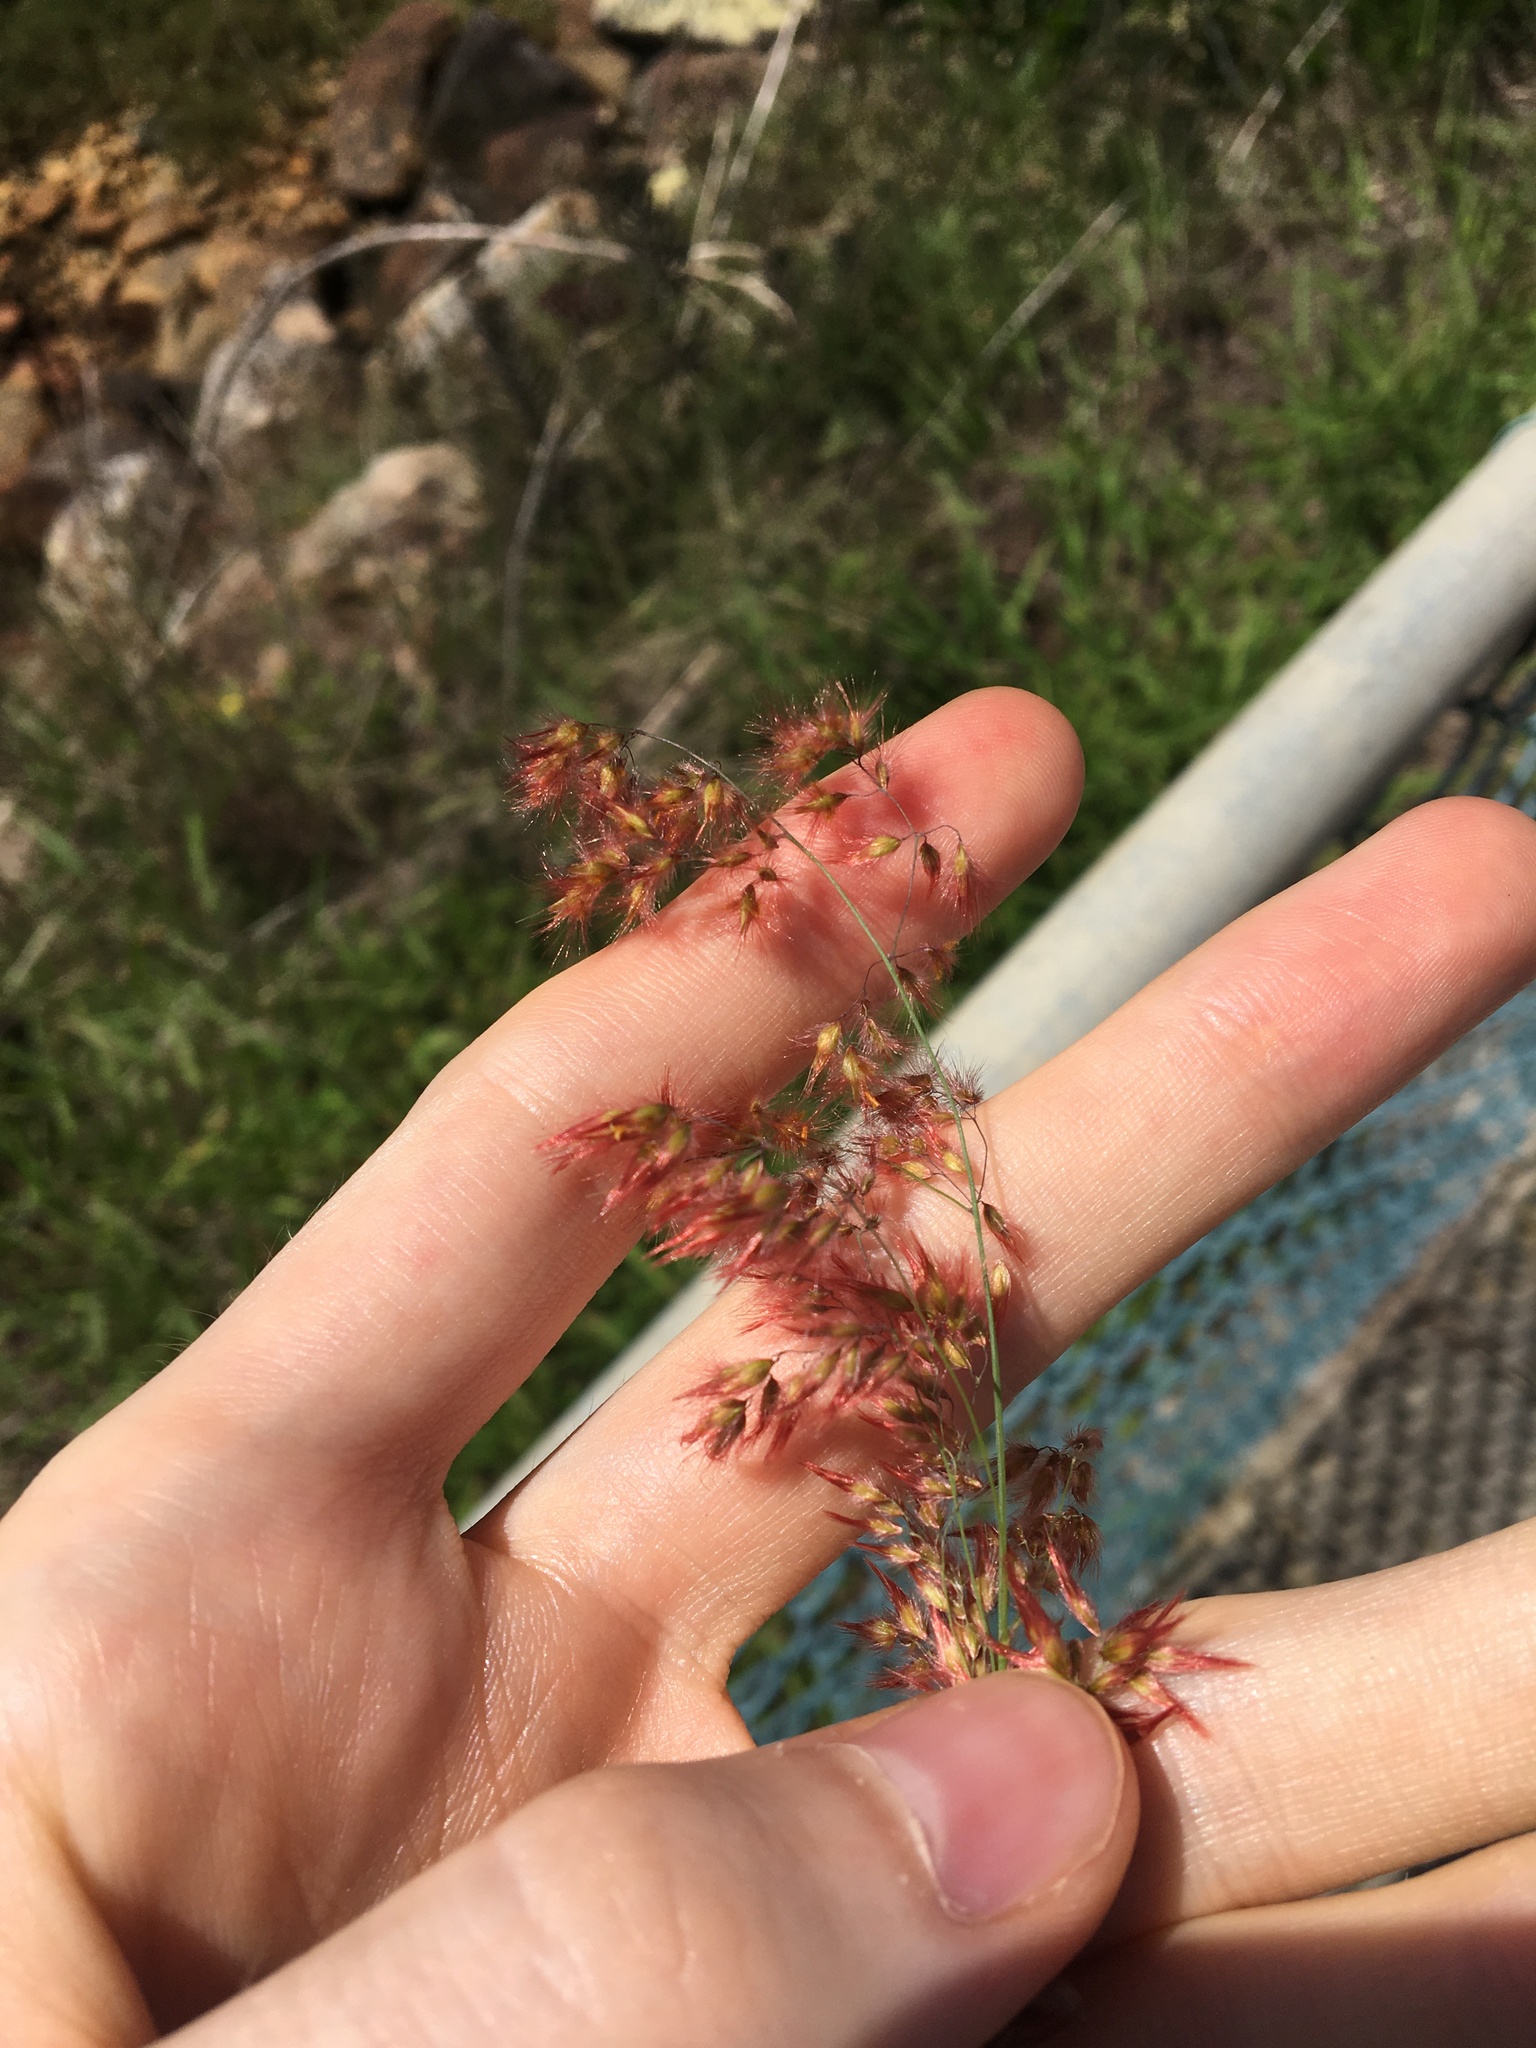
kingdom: Plantae
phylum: Tracheophyta
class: Liliopsida
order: Poales
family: Poaceae
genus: Melinis
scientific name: Melinis repens
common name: Rose natal grass
